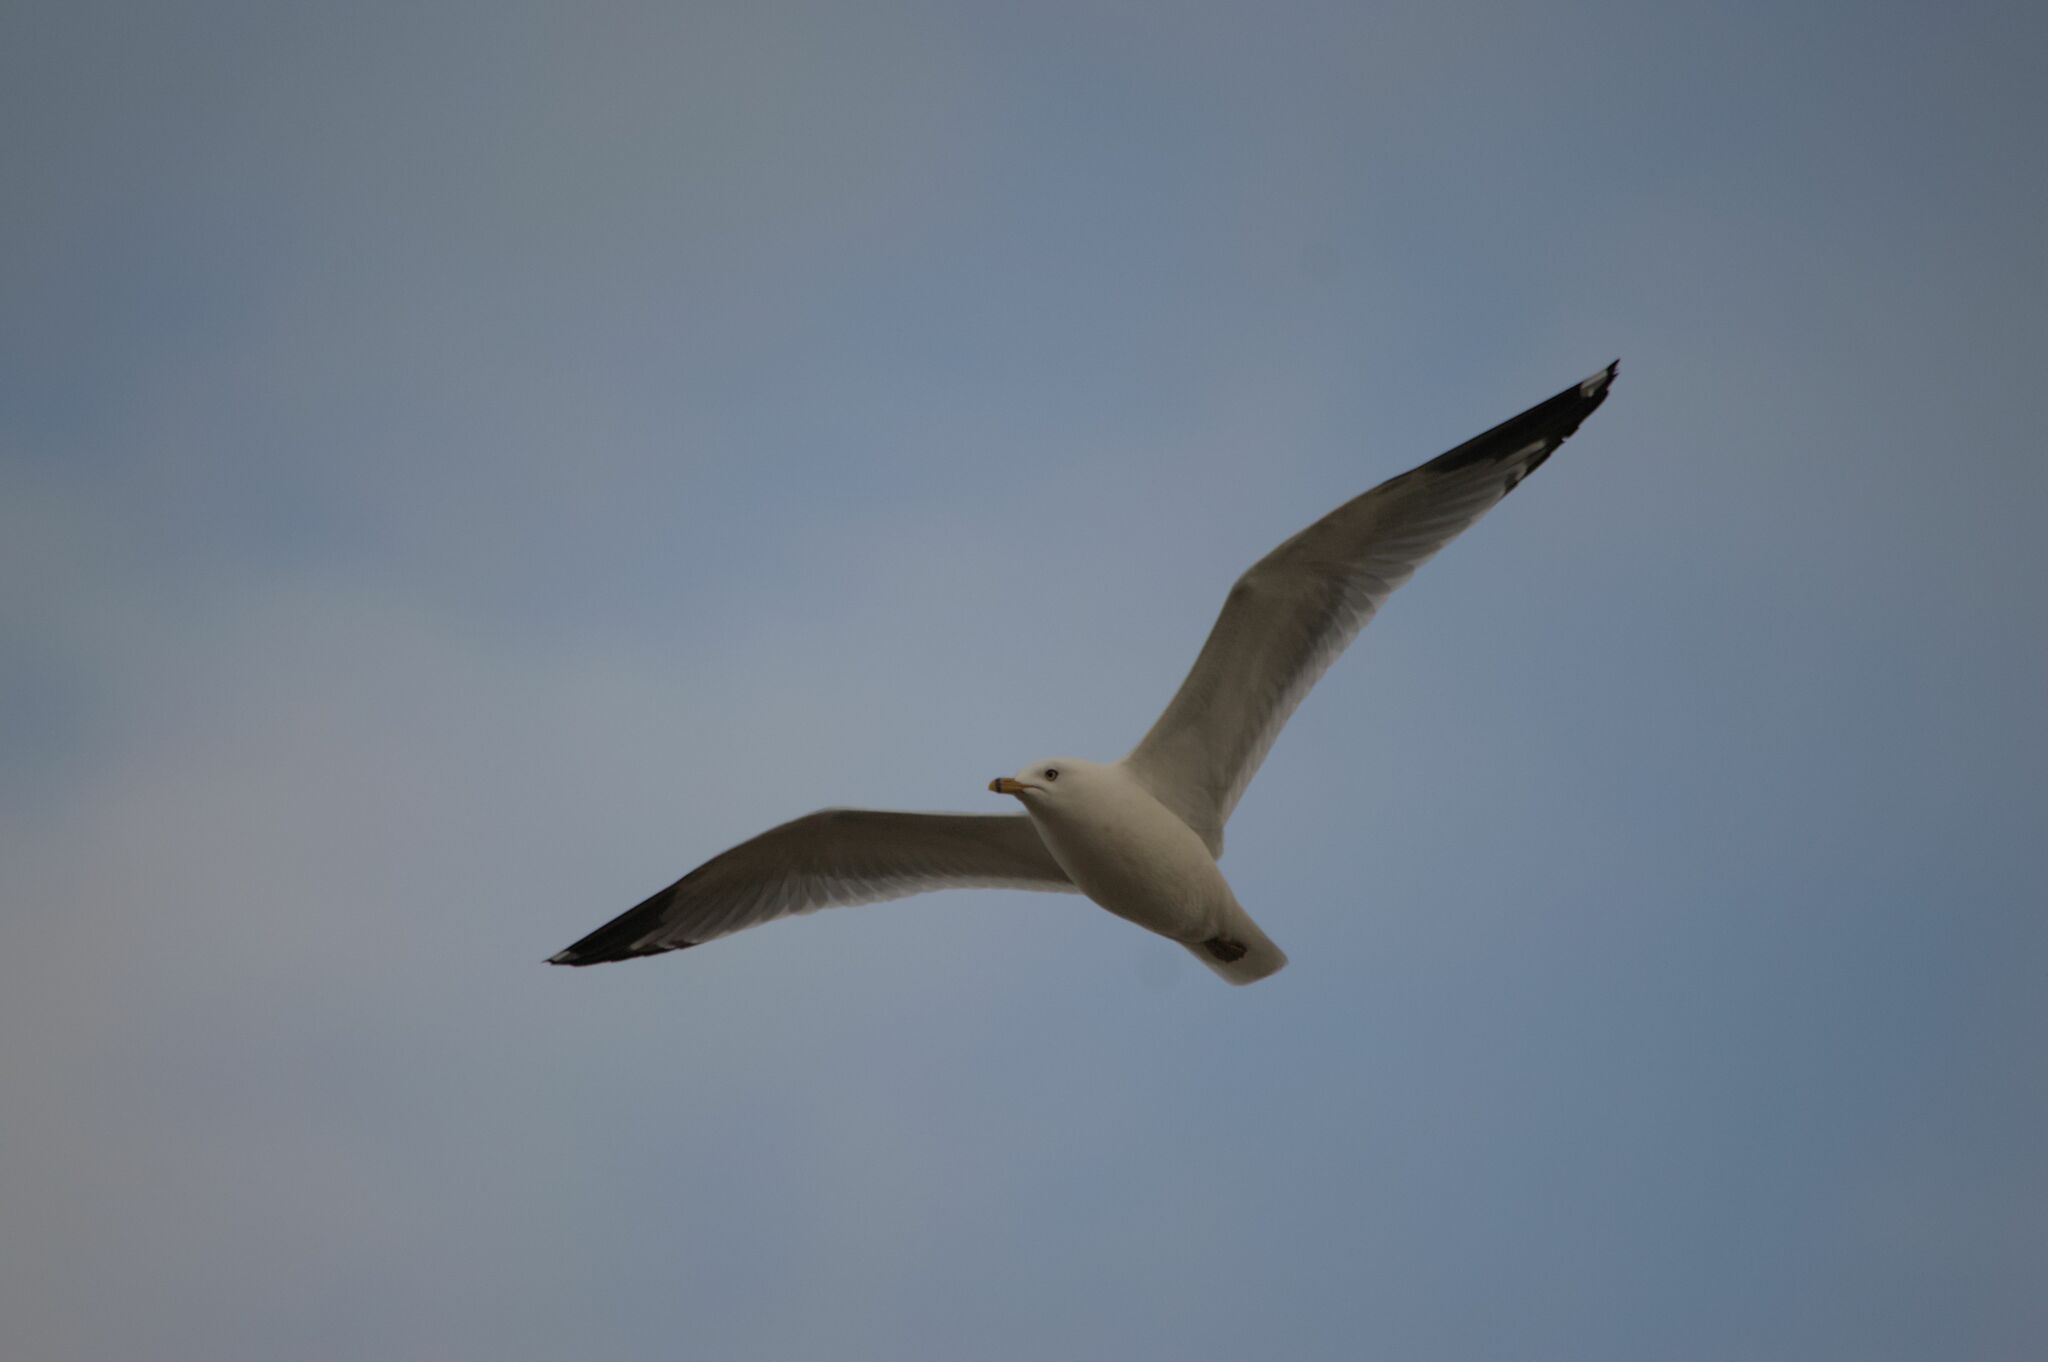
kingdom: Animalia
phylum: Chordata
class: Aves
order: Charadriiformes
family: Laridae
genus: Larus
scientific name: Larus delawarensis
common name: Ring-billed gull
